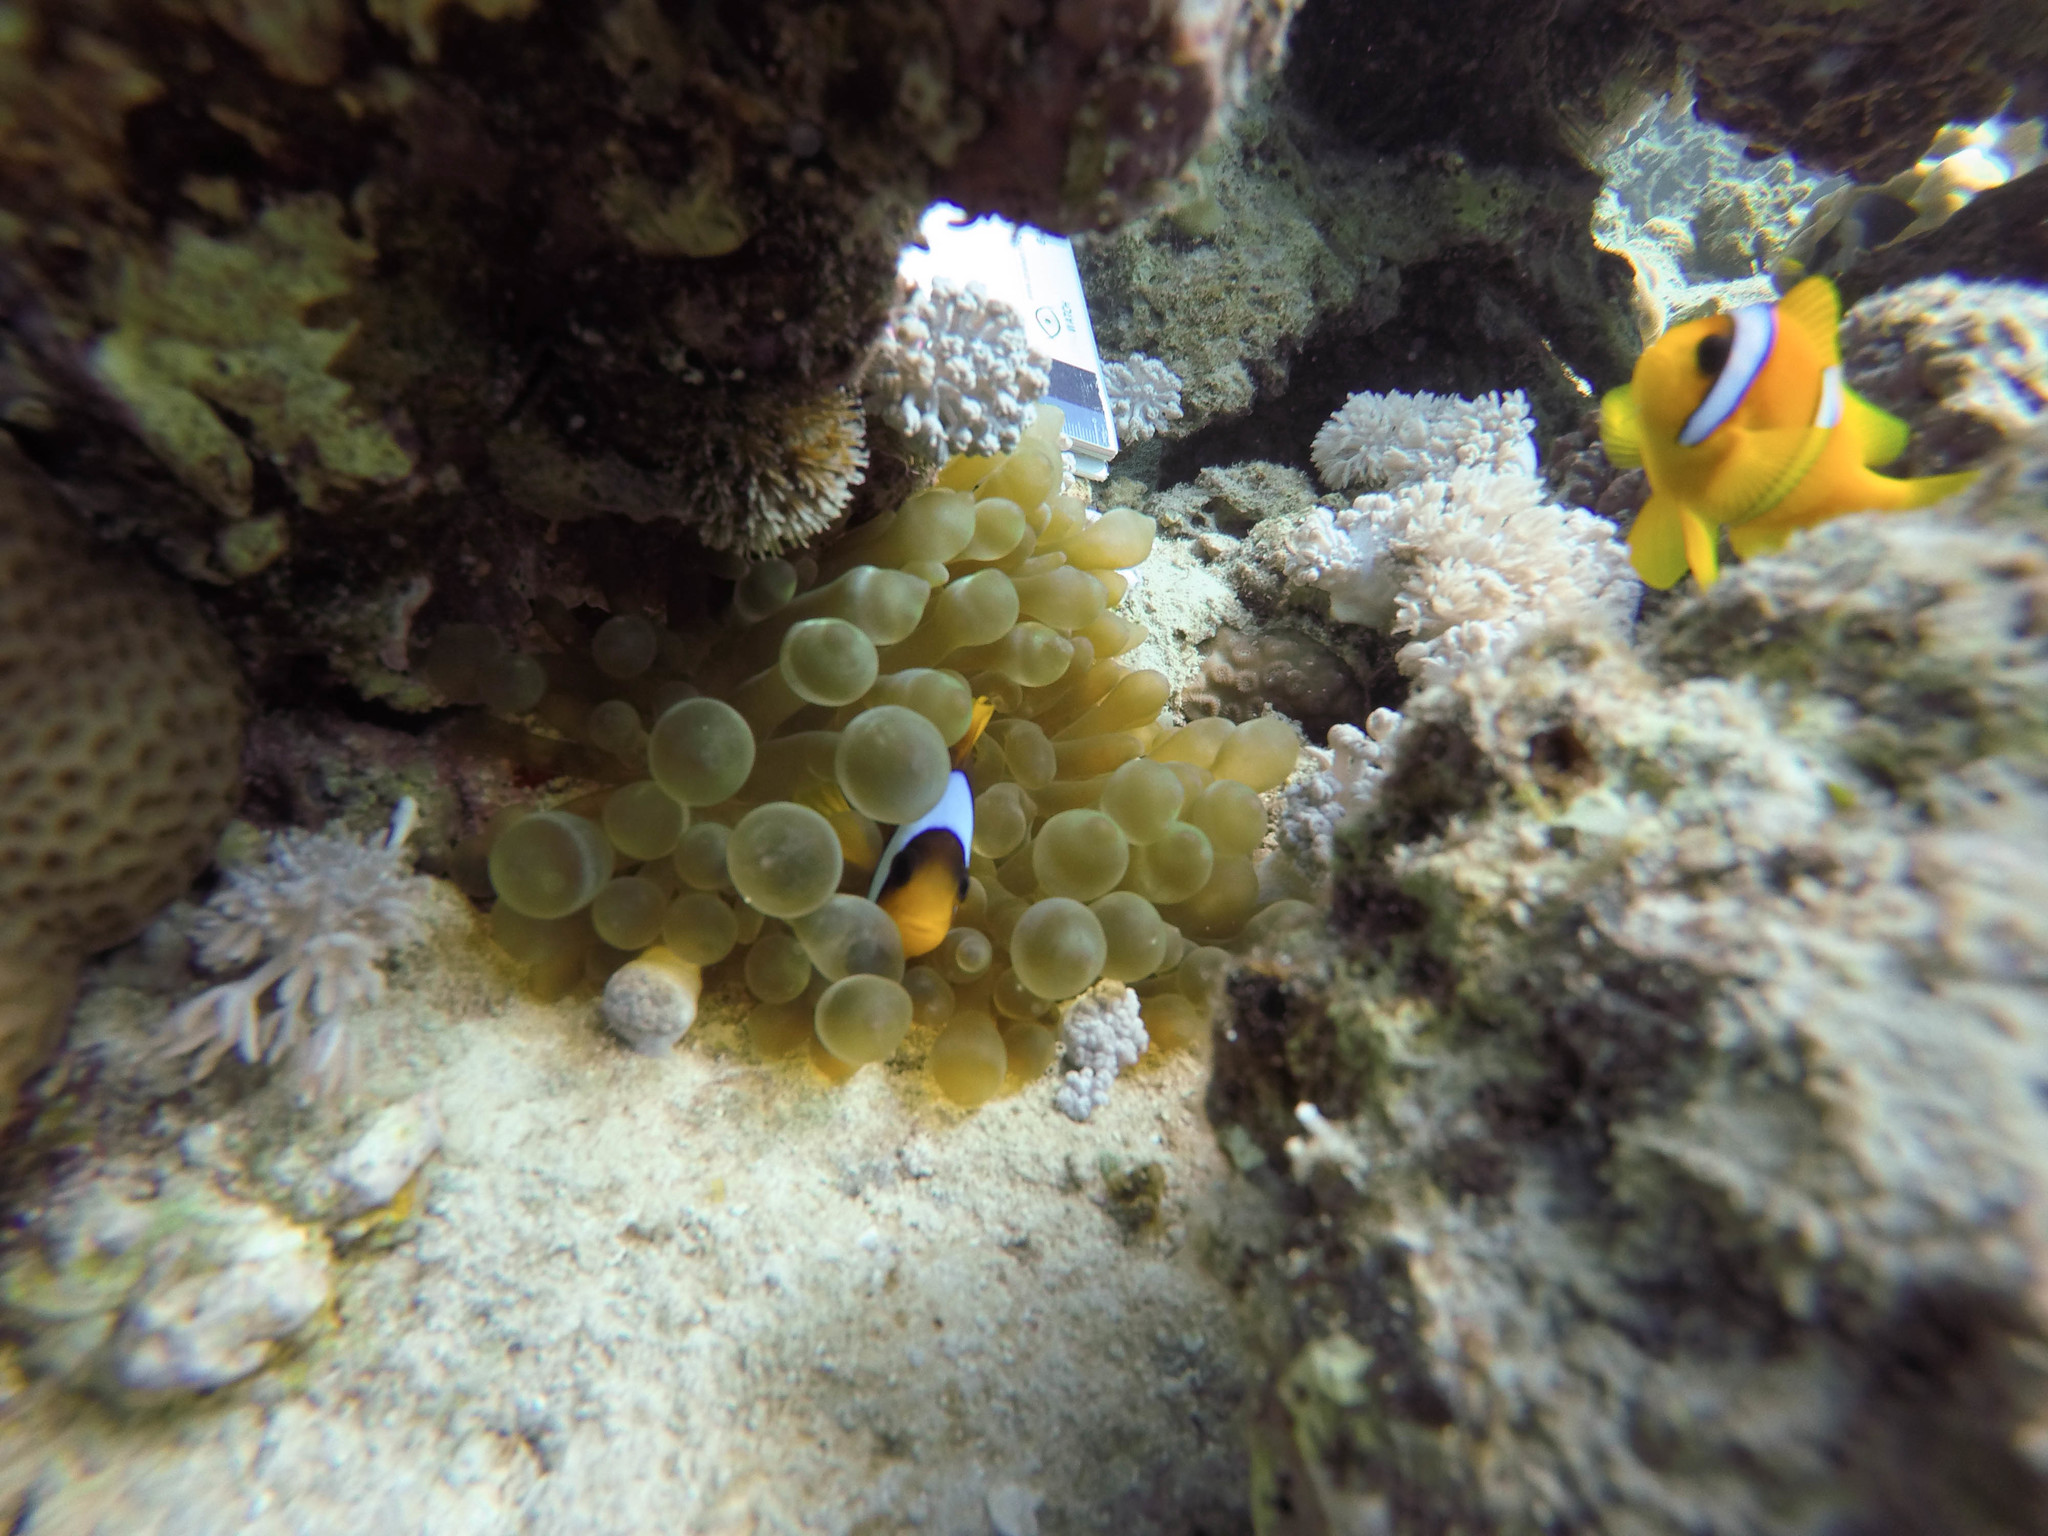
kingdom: Animalia
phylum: Chordata
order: Perciformes
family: Pomacentridae
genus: Amphiprion
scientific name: Amphiprion bicinctus
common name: Two-banded anemonefish
